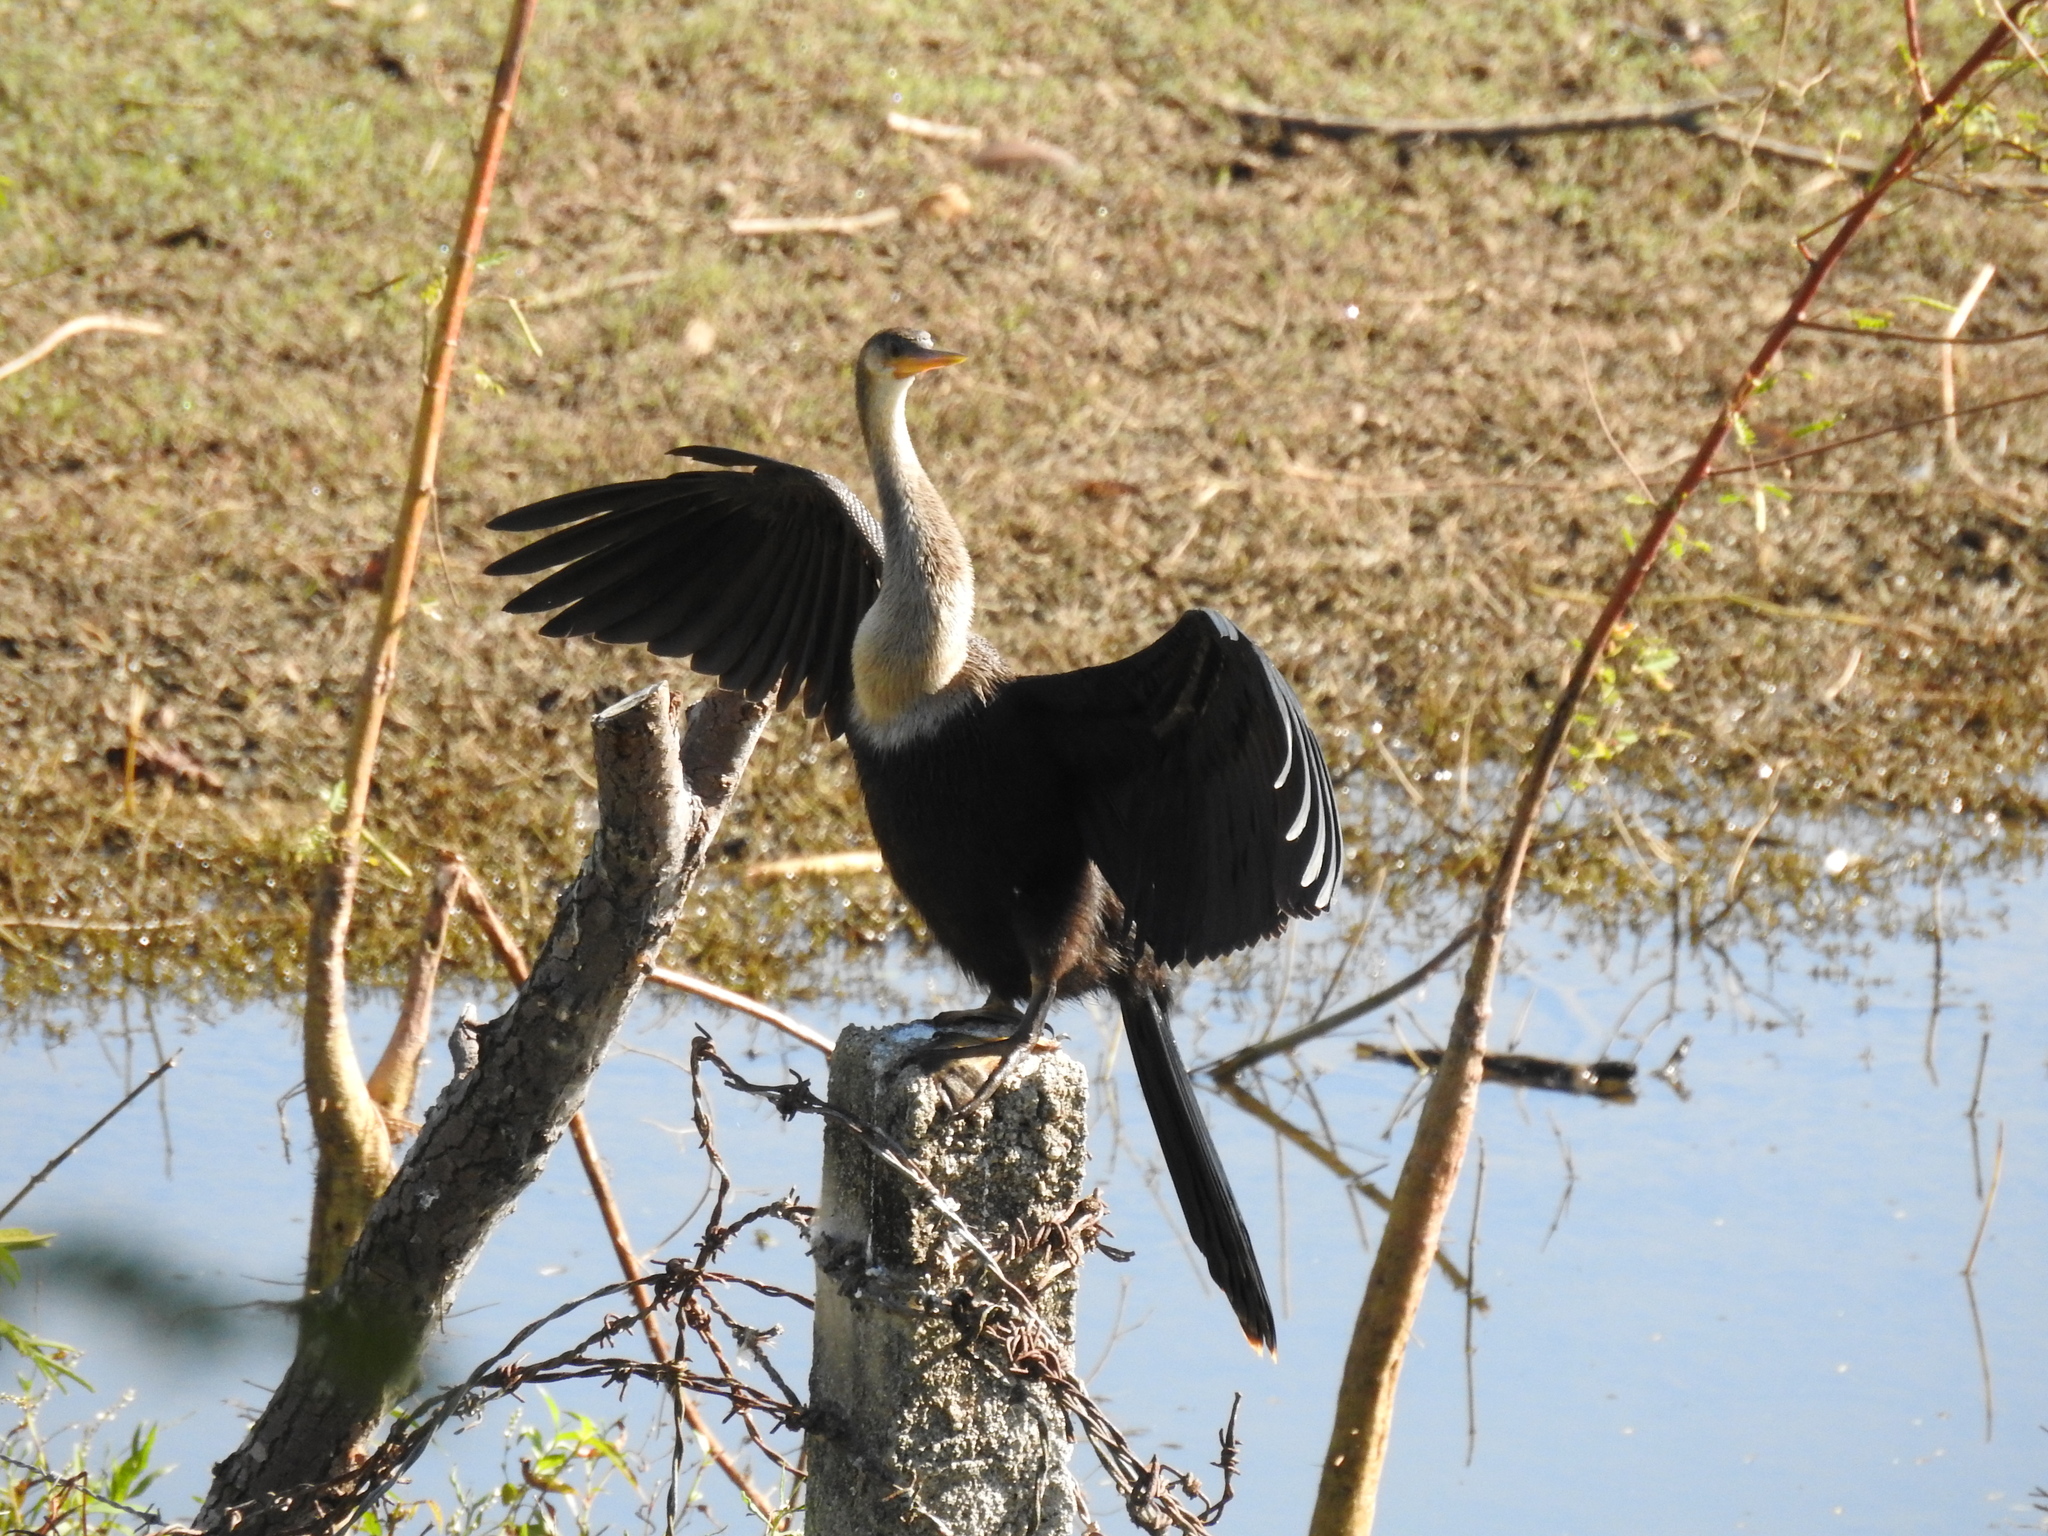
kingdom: Animalia
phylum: Chordata
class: Aves
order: Suliformes
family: Anhingidae
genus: Anhinga
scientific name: Anhinga anhinga
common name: Anhinga
